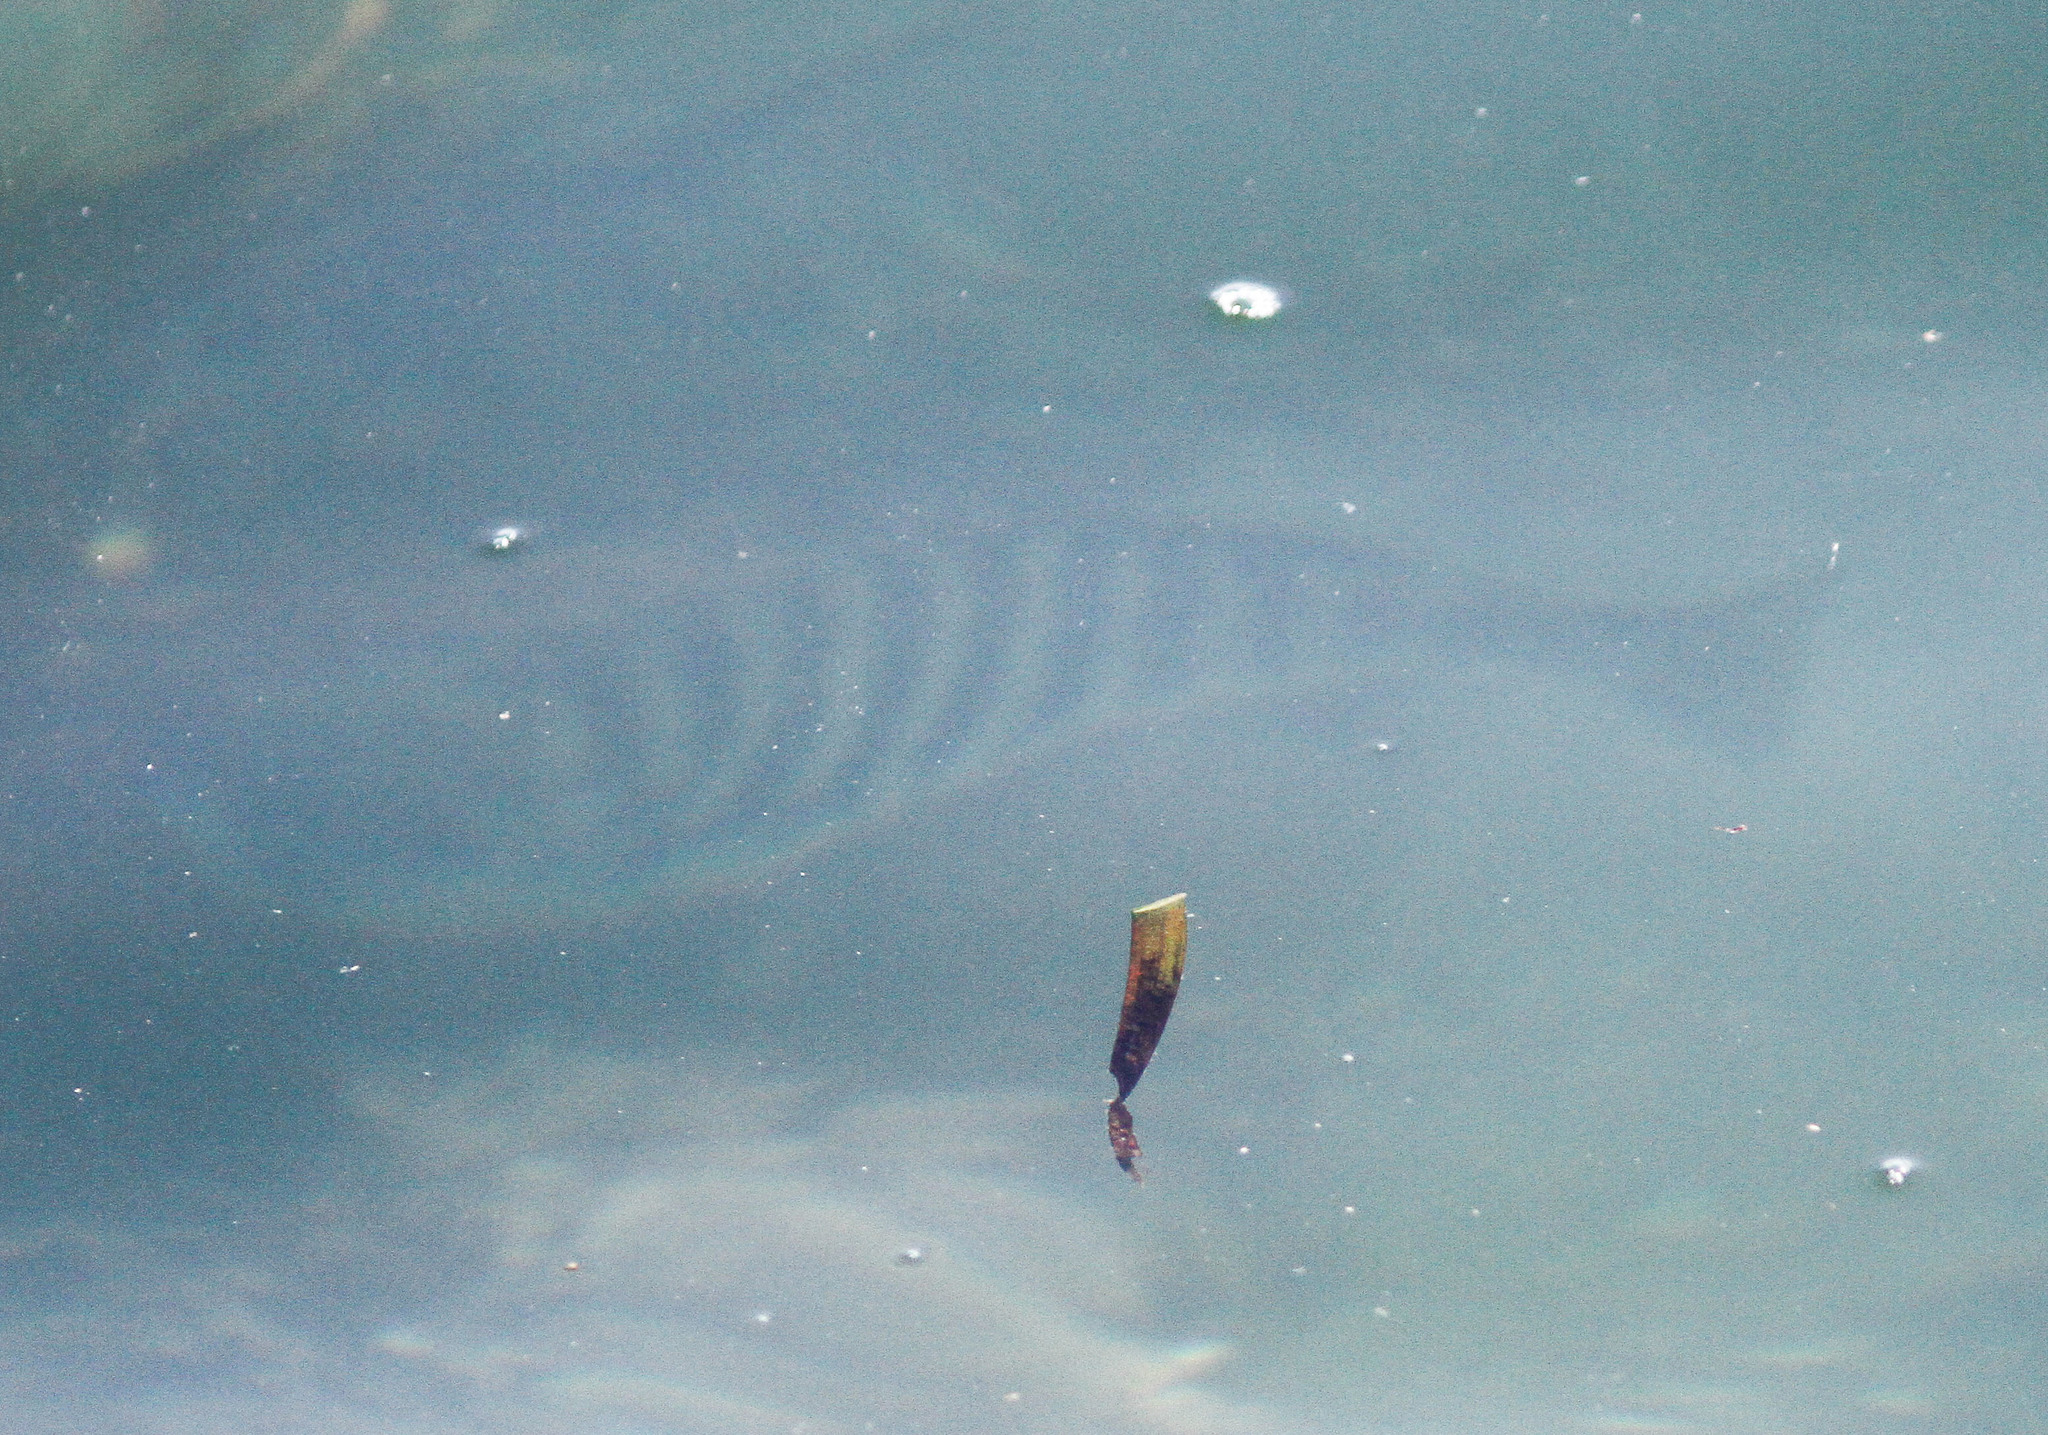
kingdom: Animalia
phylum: Chordata
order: Perciformes
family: Kyphosidae
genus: Kyphosus
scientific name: Kyphosus azureus
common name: Perch
